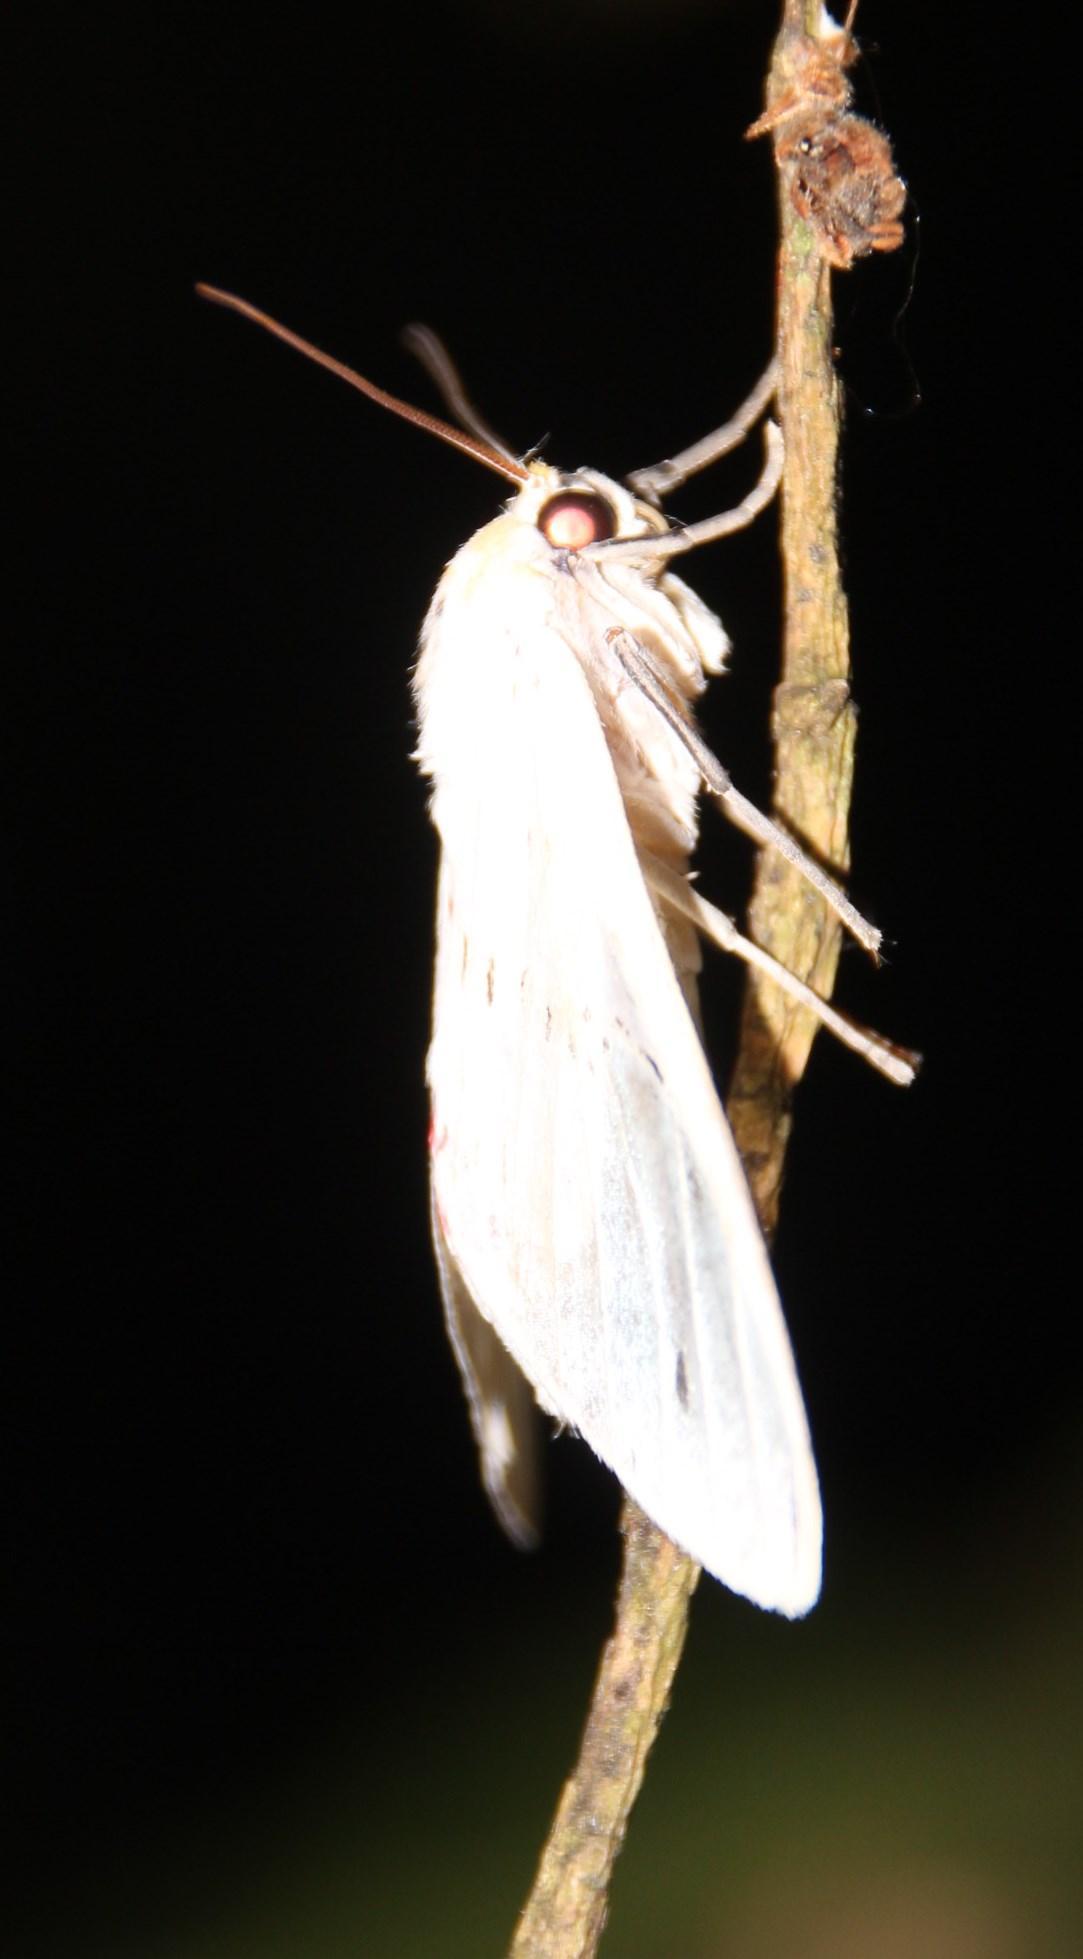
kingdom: Animalia
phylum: Arthropoda
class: Insecta
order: Lepidoptera
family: Erebidae
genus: Idalus
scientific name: Idalus aleteria
